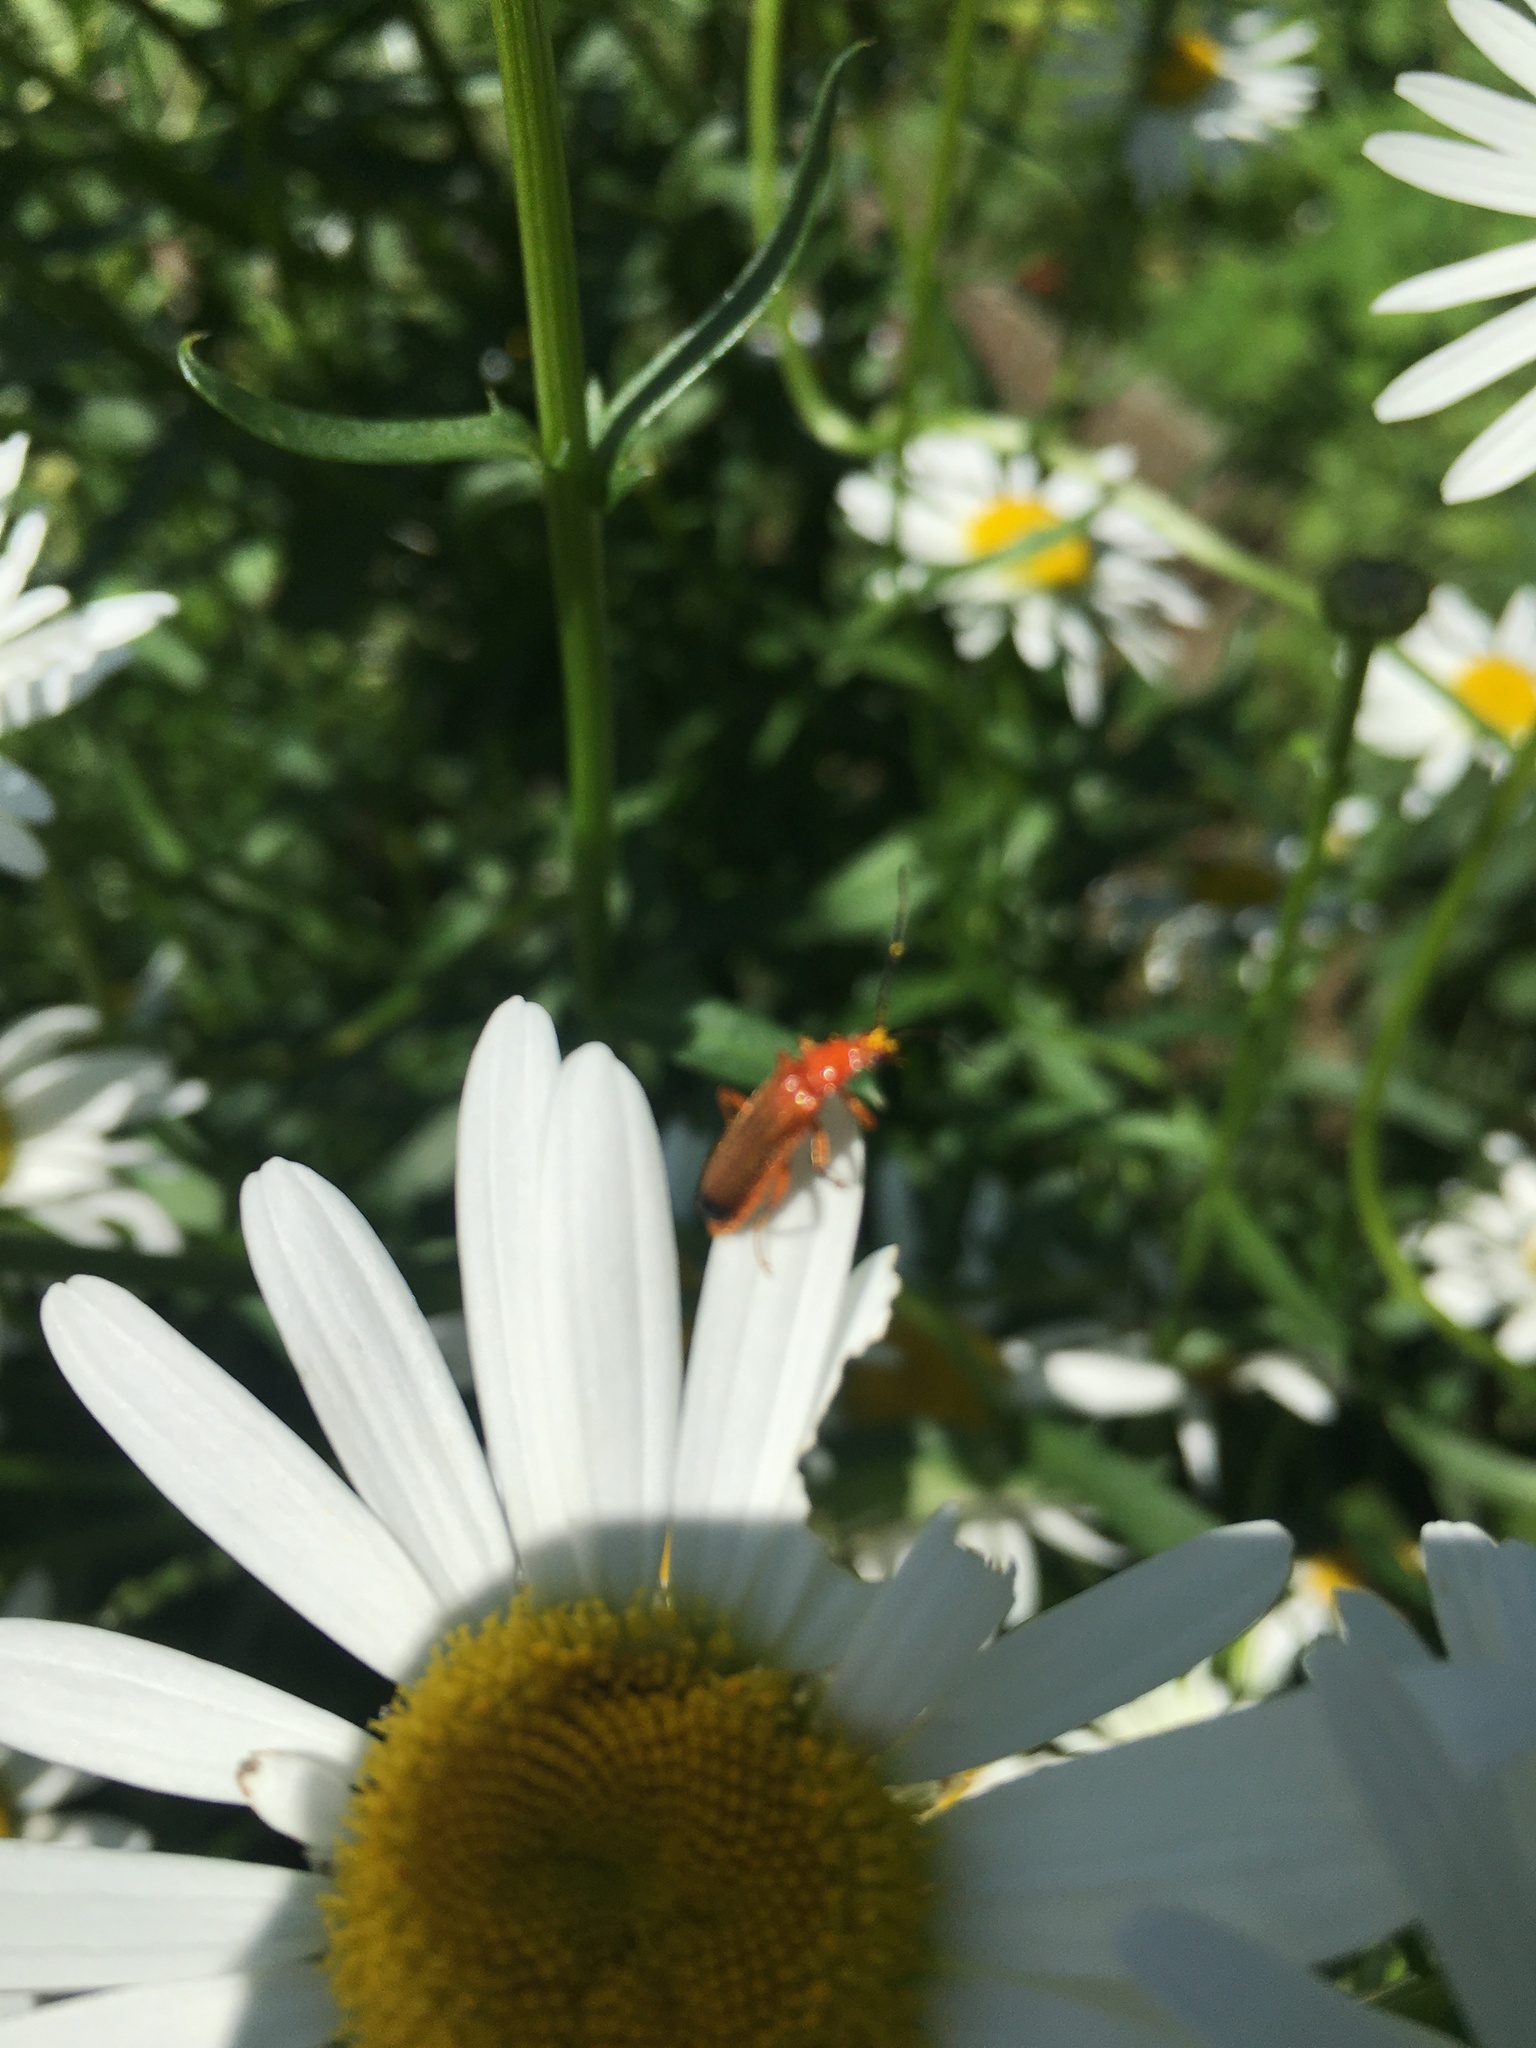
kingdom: Animalia
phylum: Arthropoda
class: Insecta
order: Coleoptera
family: Cantharidae
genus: Rhagonycha
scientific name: Rhagonycha fulva
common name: Common red soldier beetle
